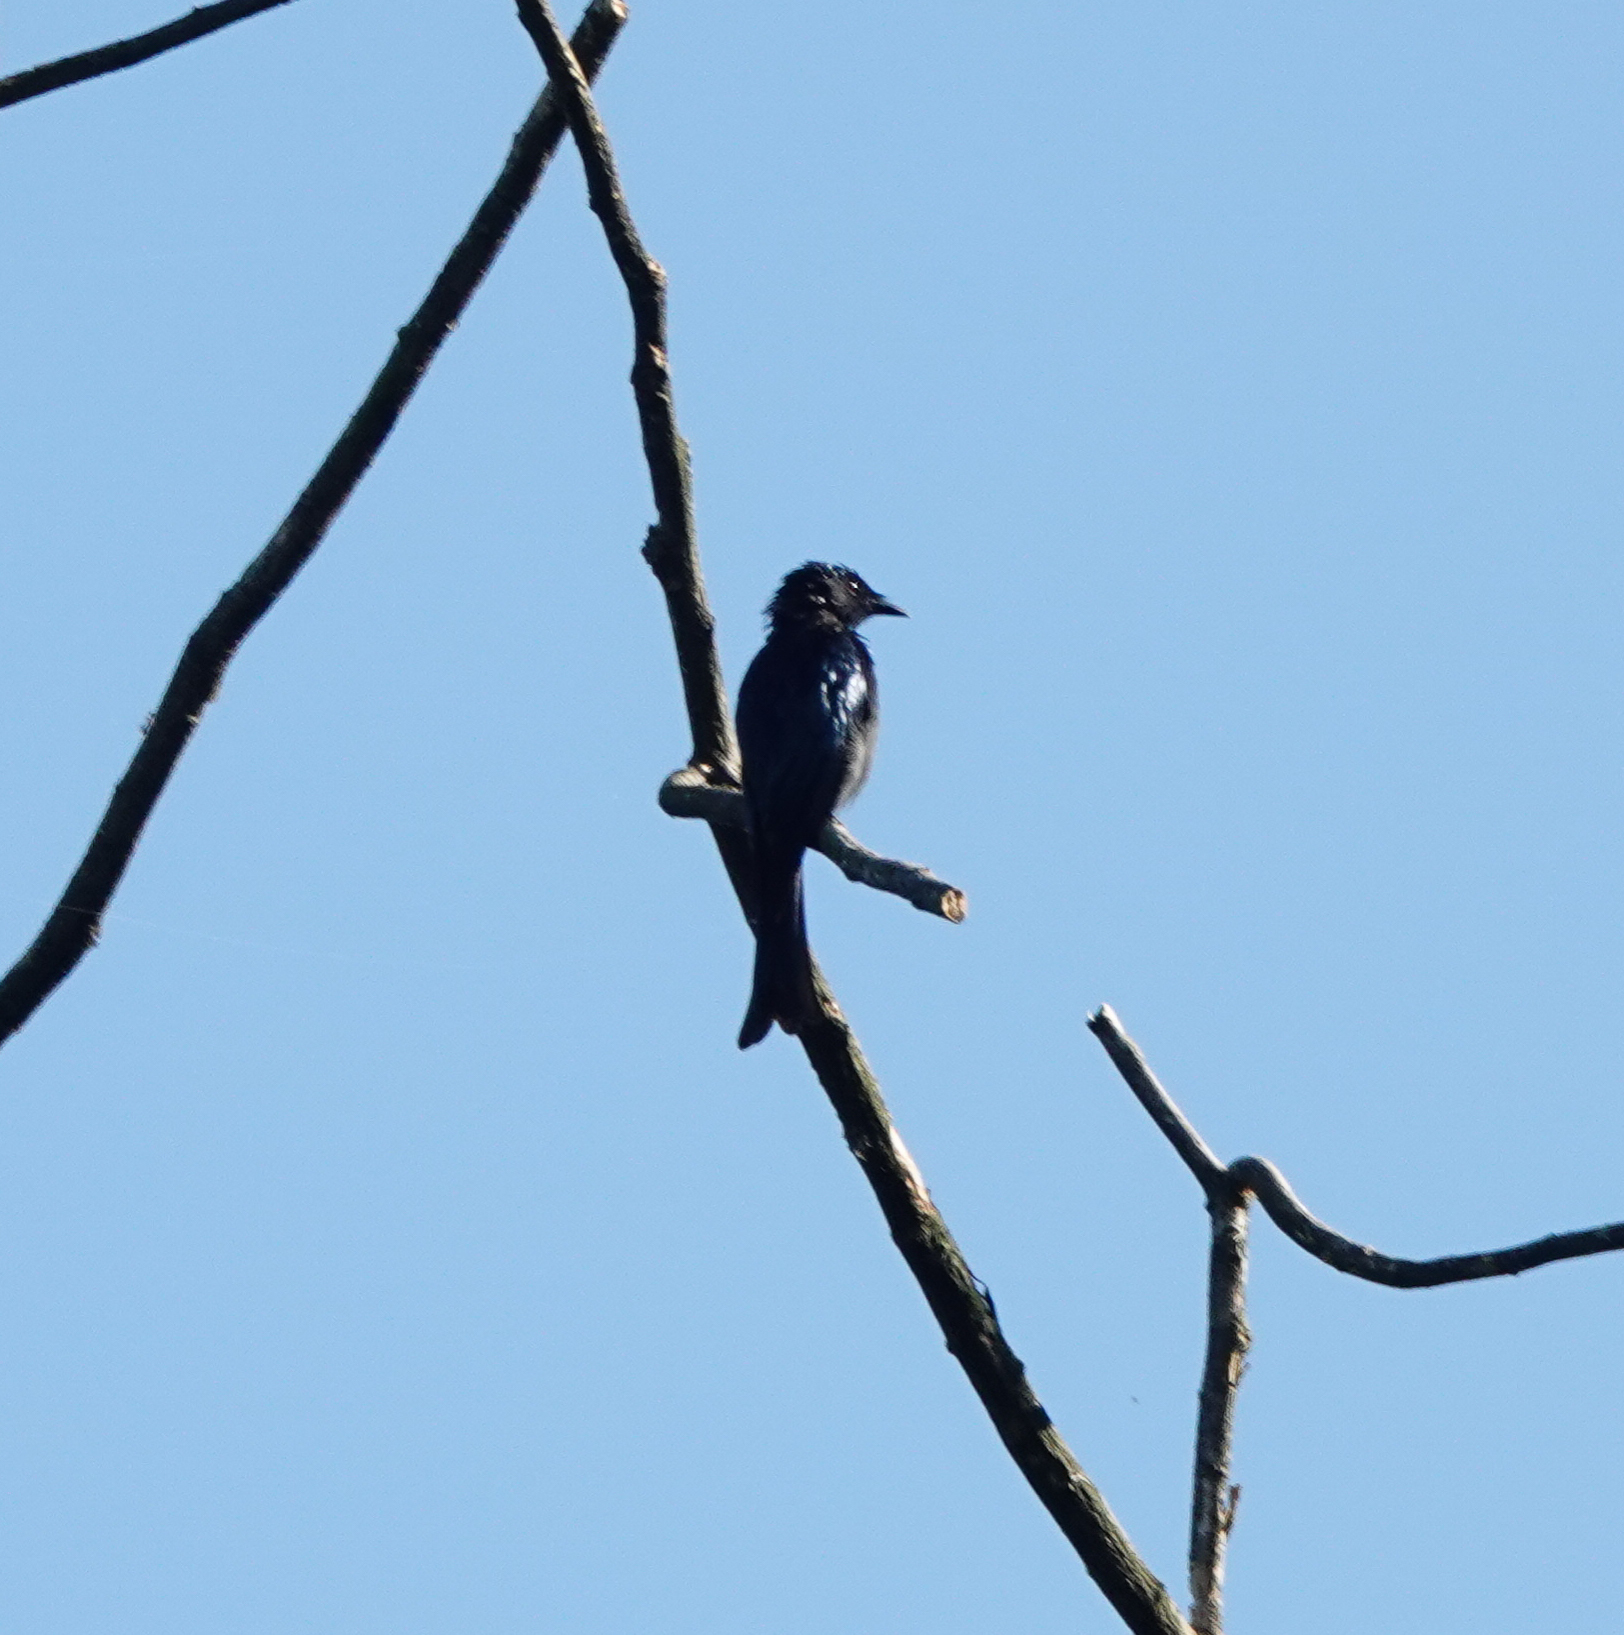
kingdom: Animalia
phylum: Chordata
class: Aves
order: Passeriformes
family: Dicruridae
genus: Dicrurus
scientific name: Dicrurus aeneus
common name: Bronzed drongo
